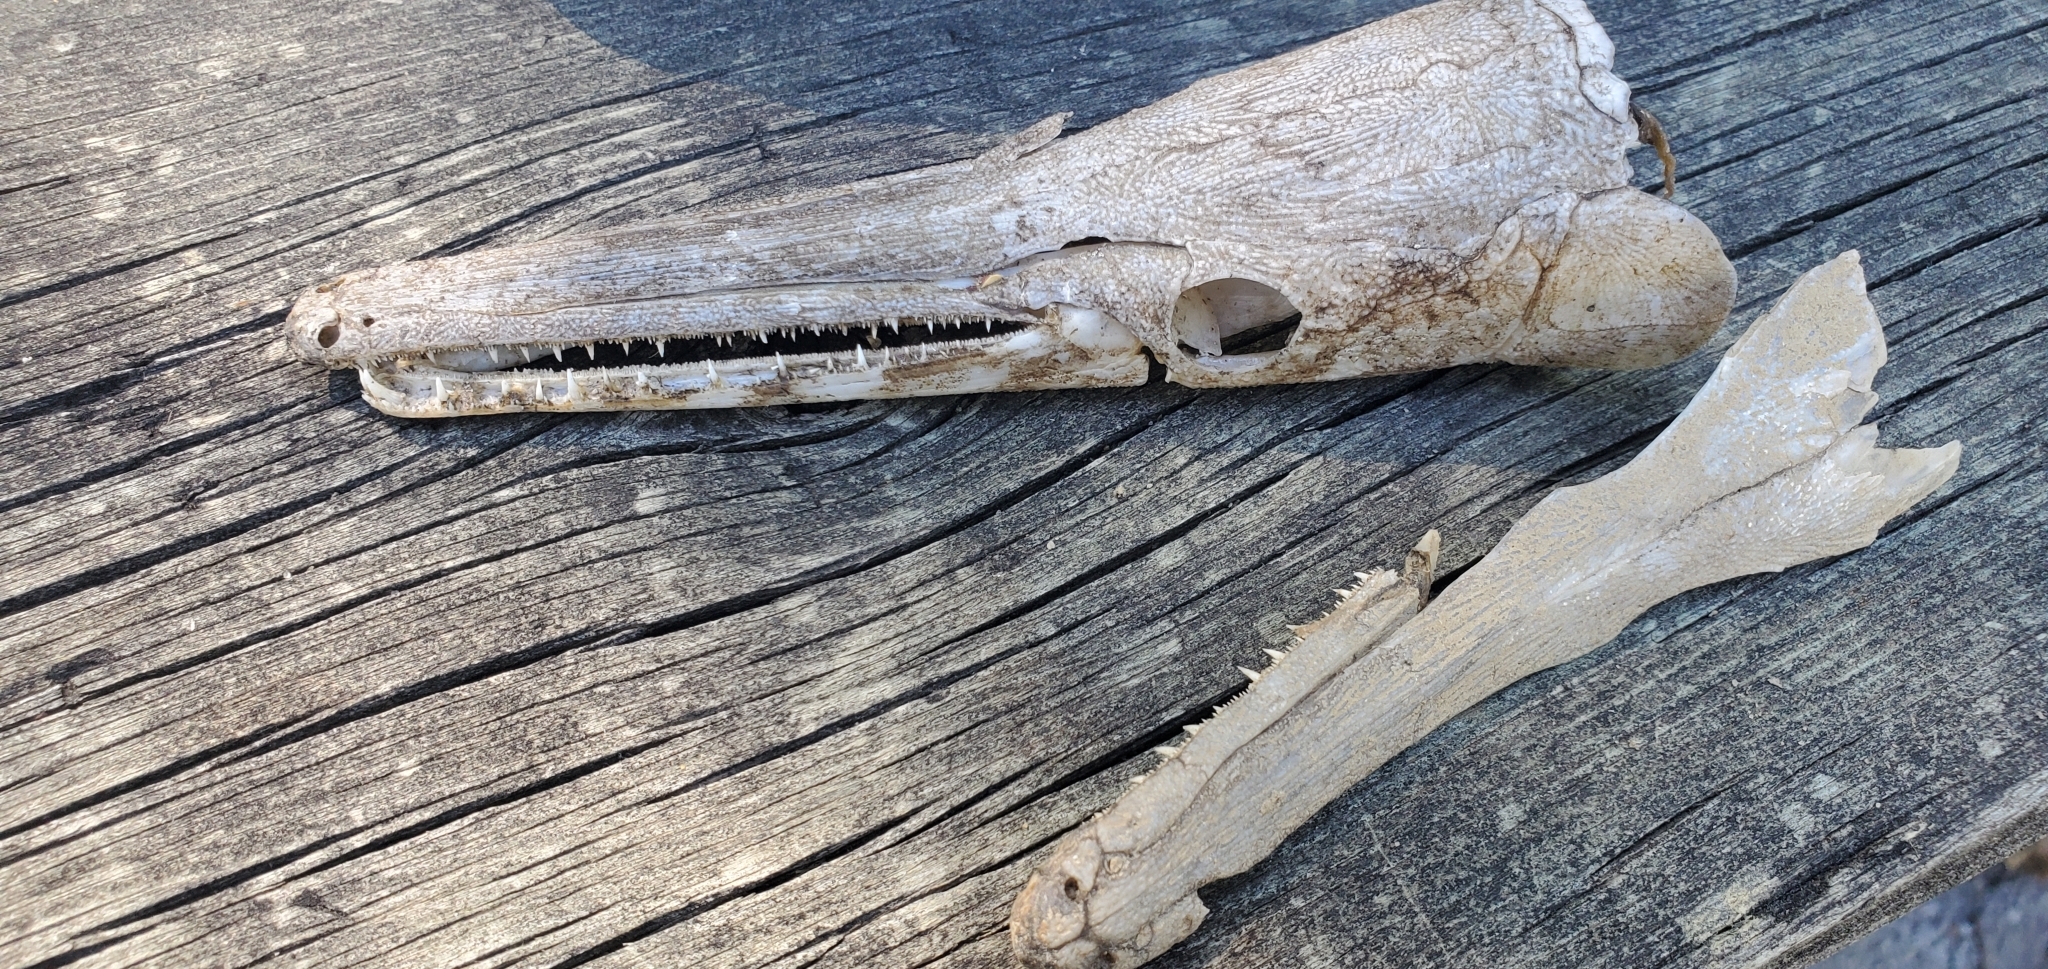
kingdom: Animalia
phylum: Chordata
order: Lepisosteiformes
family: Lepisosteidae
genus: Lepisosteus
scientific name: Lepisosteus platostomus
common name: Shortnose gar
